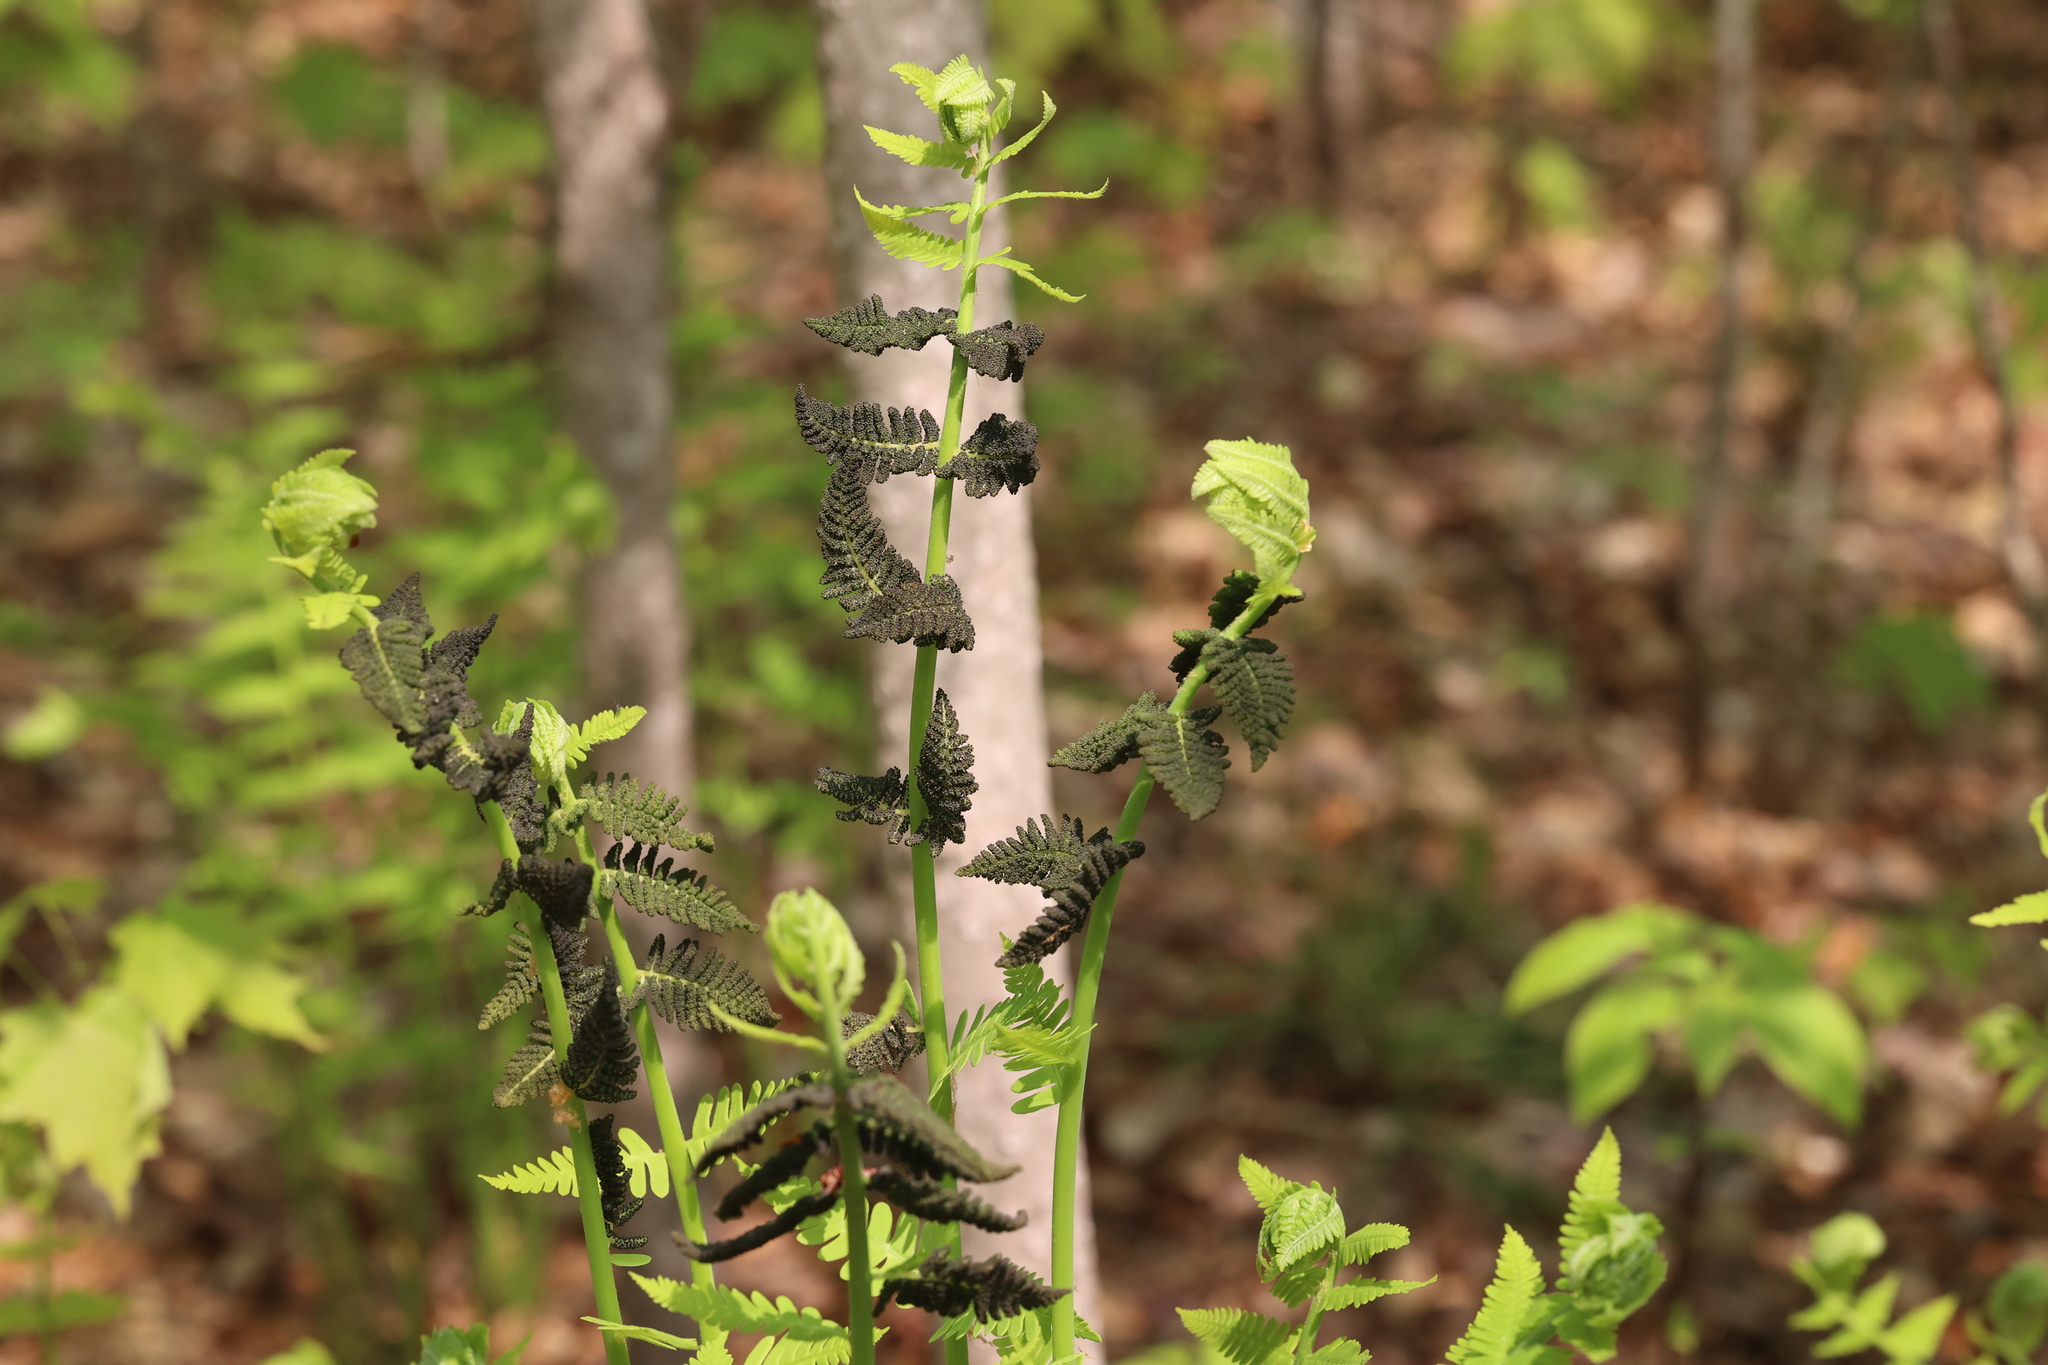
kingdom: Plantae
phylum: Tracheophyta
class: Polypodiopsida
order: Osmundales
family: Osmundaceae
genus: Claytosmunda
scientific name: Claytosmunda claytoniana
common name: Clayton's fern
